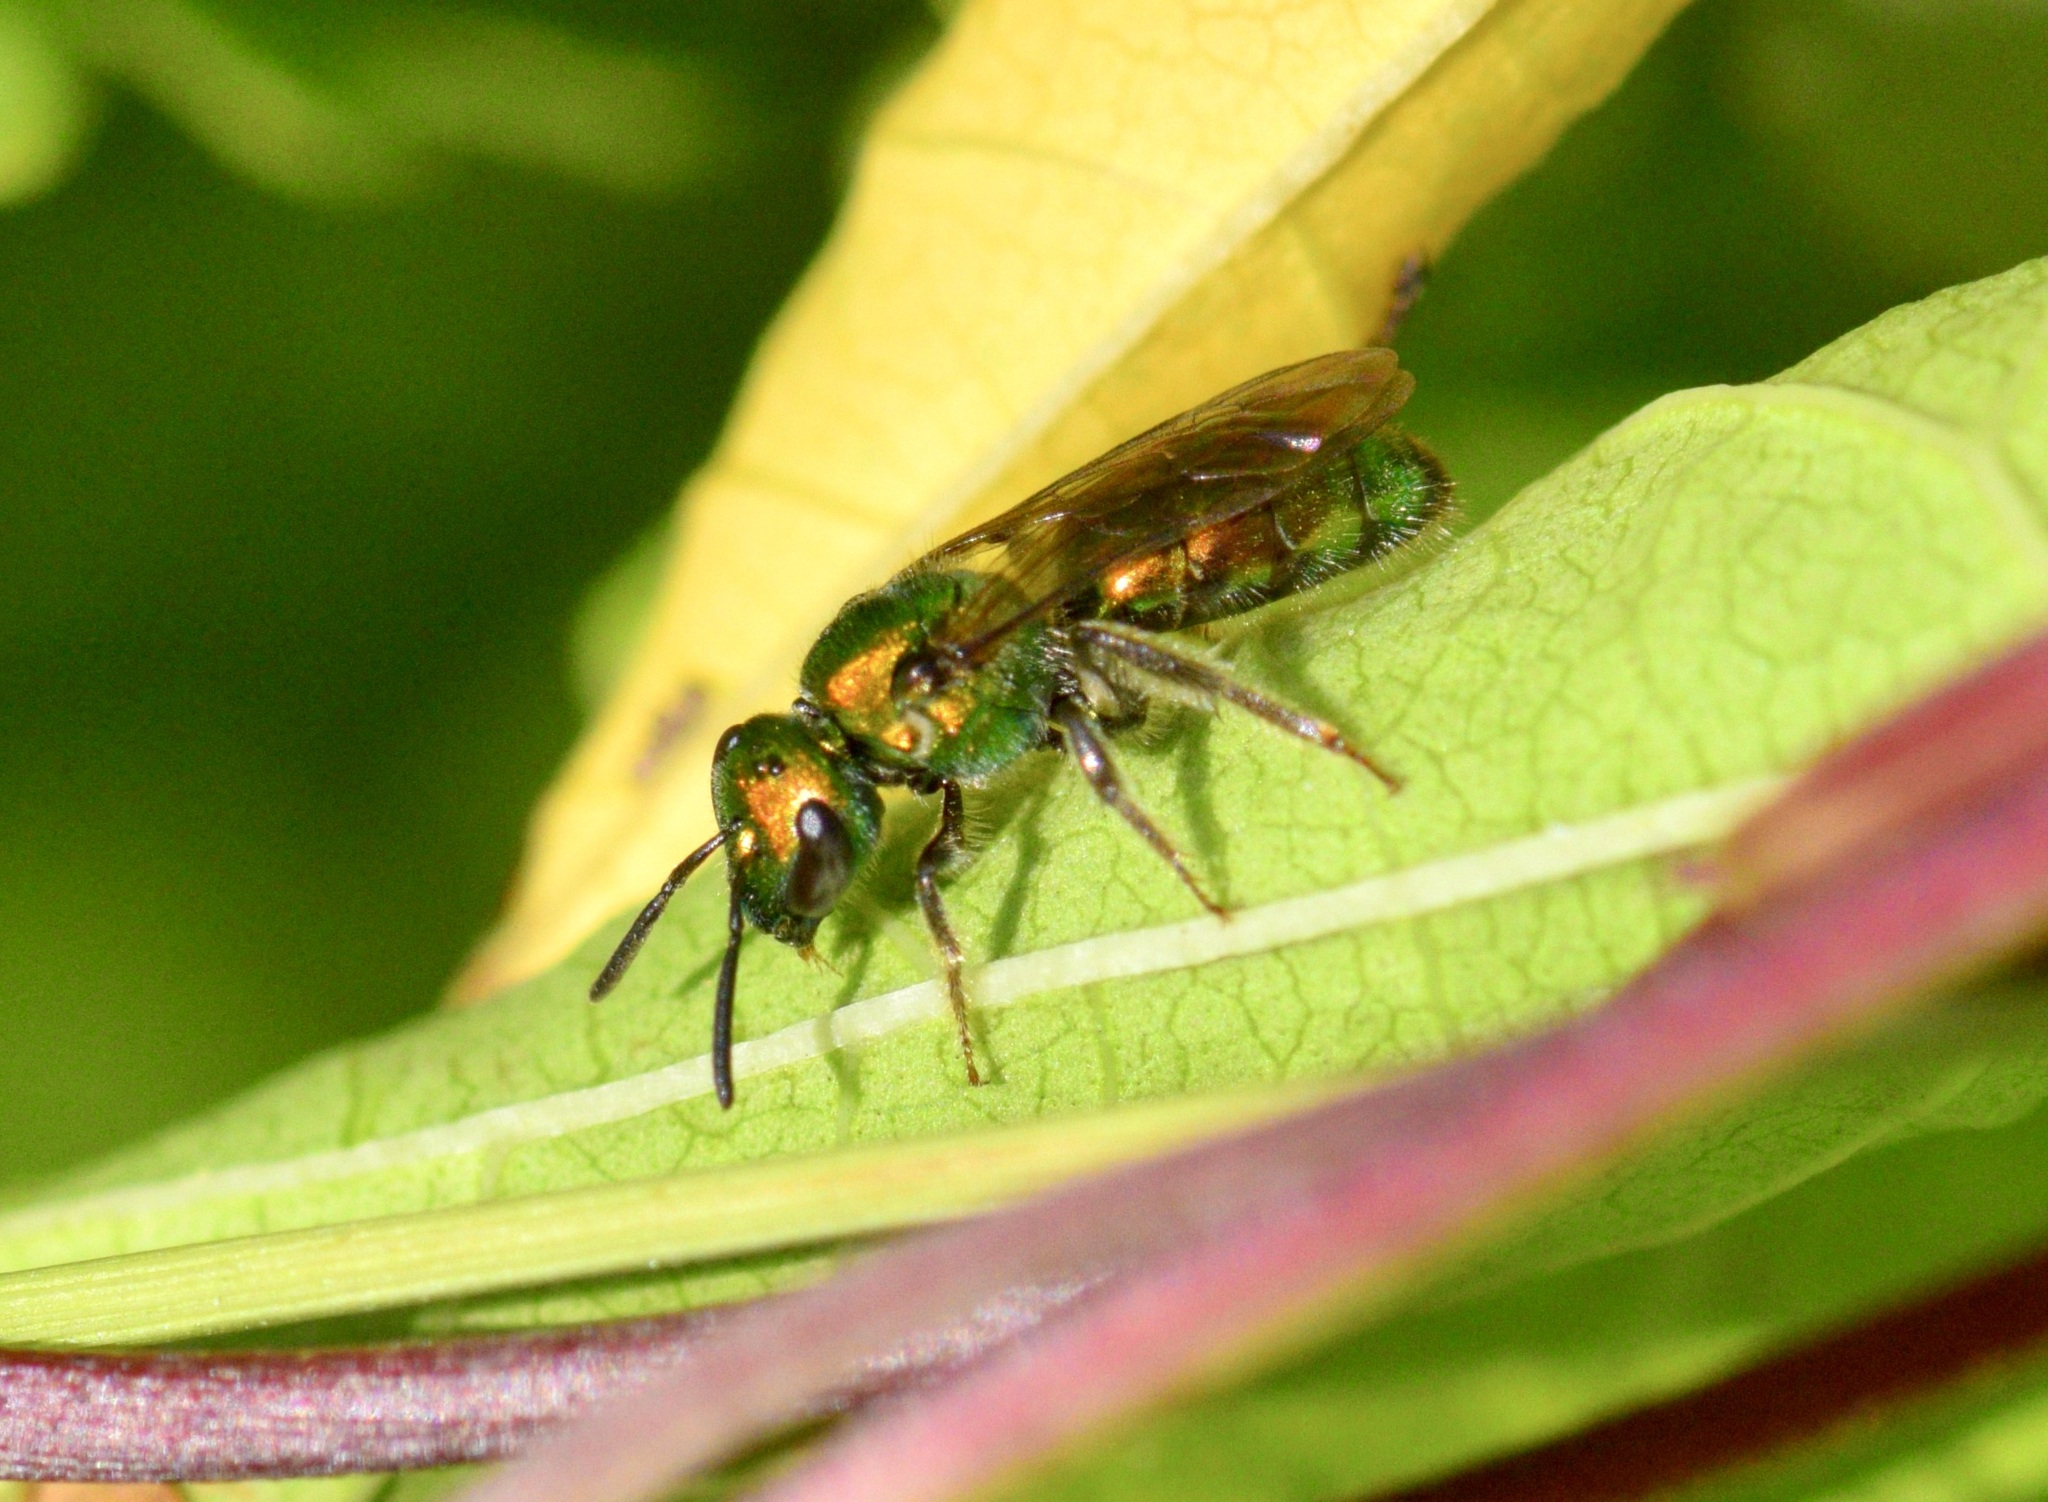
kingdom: Animalia
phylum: Arthropoda
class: Insecta
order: Hymenoptera
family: Halictidae
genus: Augochlora
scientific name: Augochlora pura
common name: Pure green sweat bee
